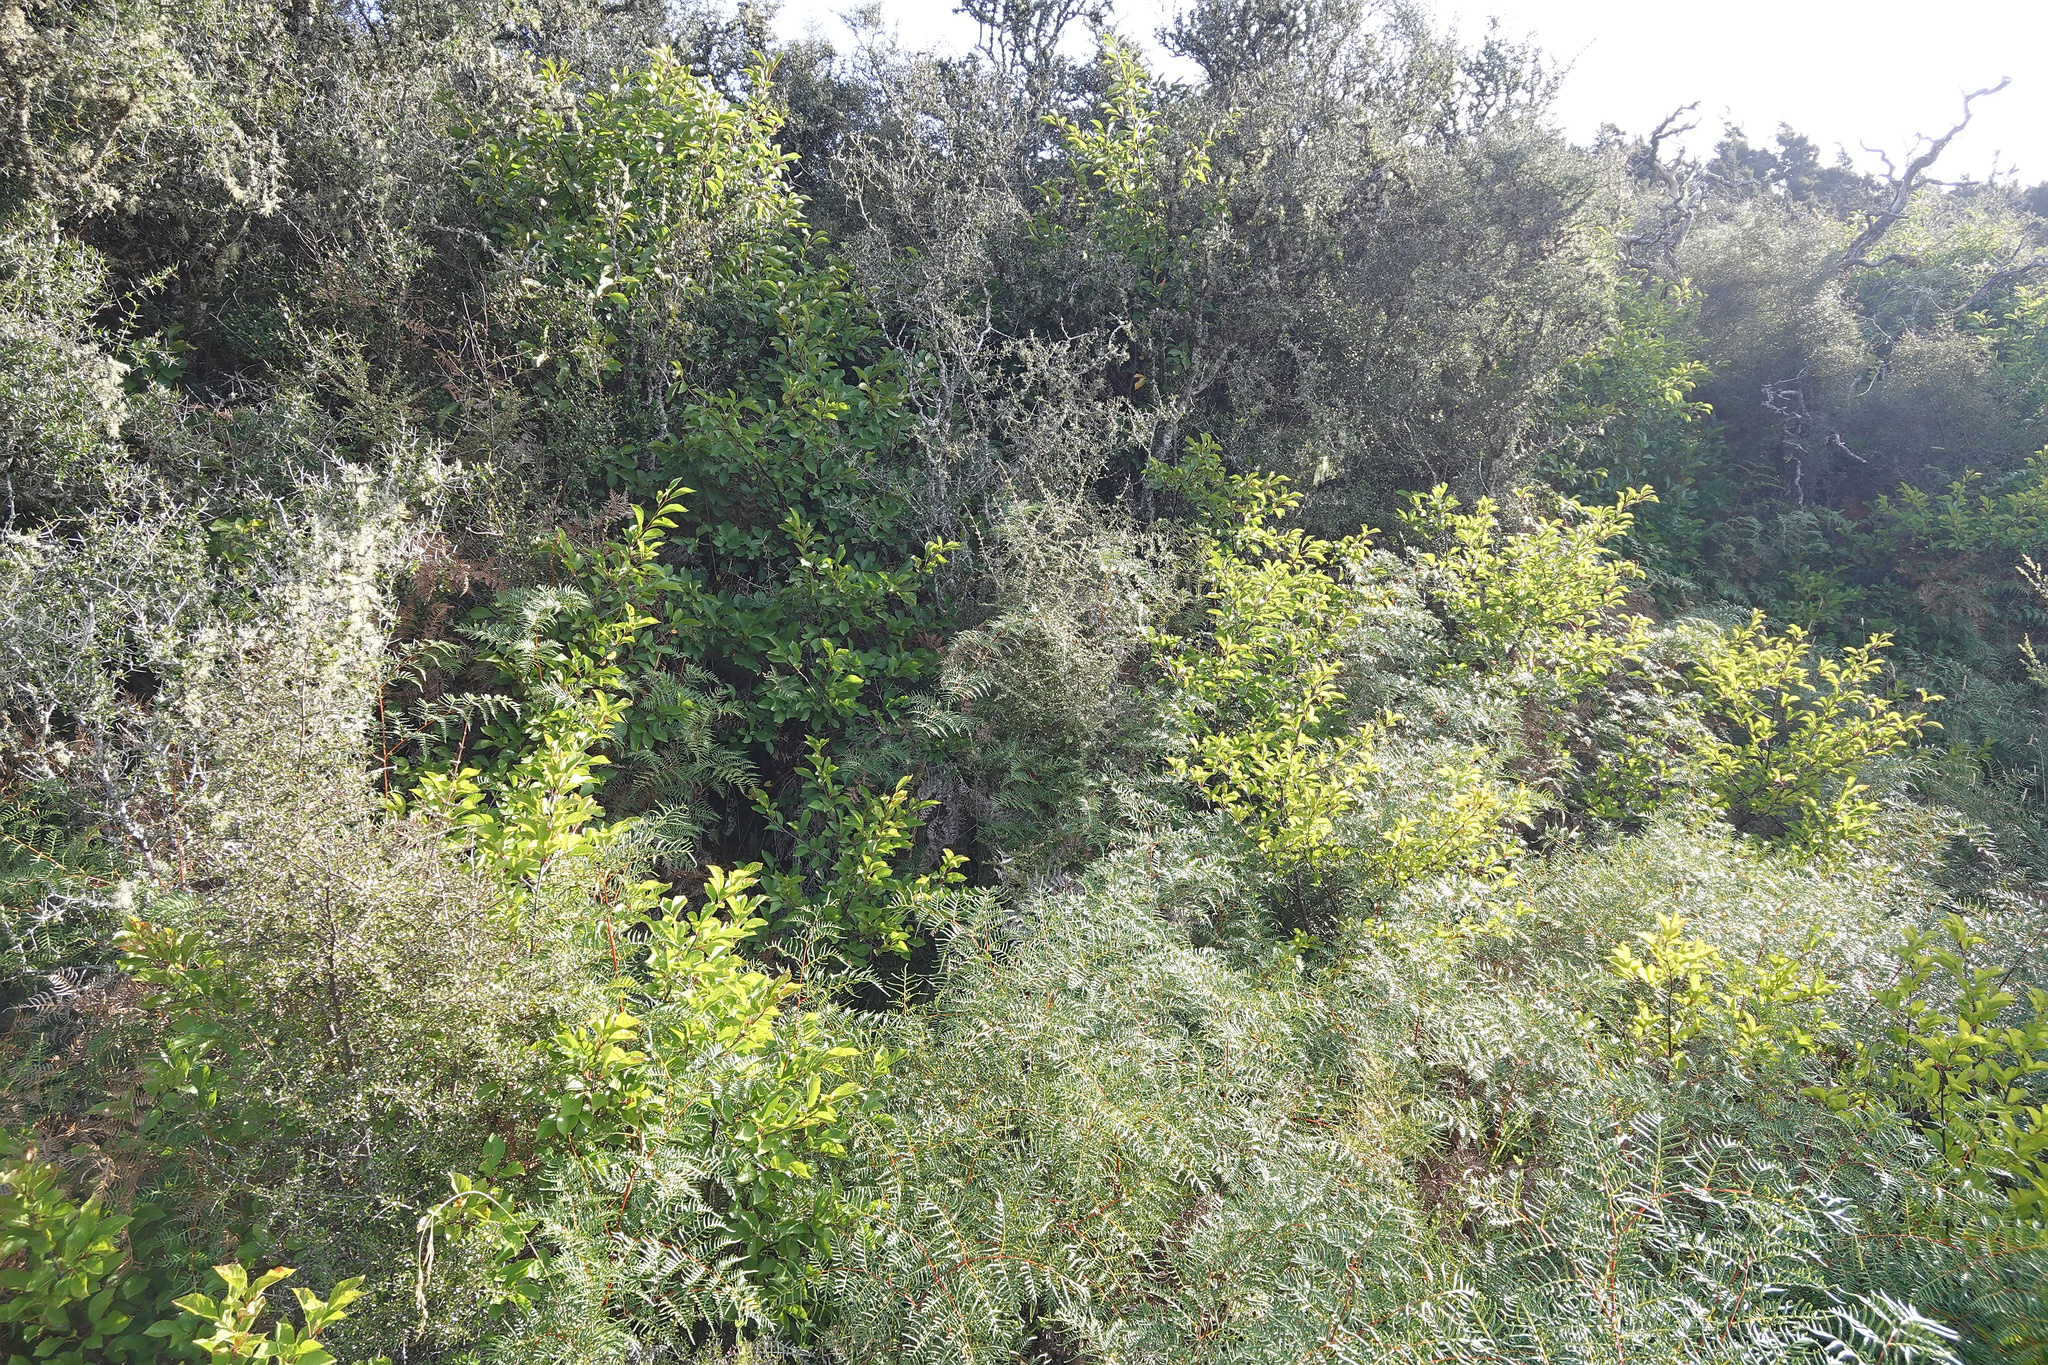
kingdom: Plantae
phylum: Tracheophyta
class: Magnoliopsida
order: Rosales
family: Rosaceae
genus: Prunus
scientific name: Prunus avium
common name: Sweet cherry
